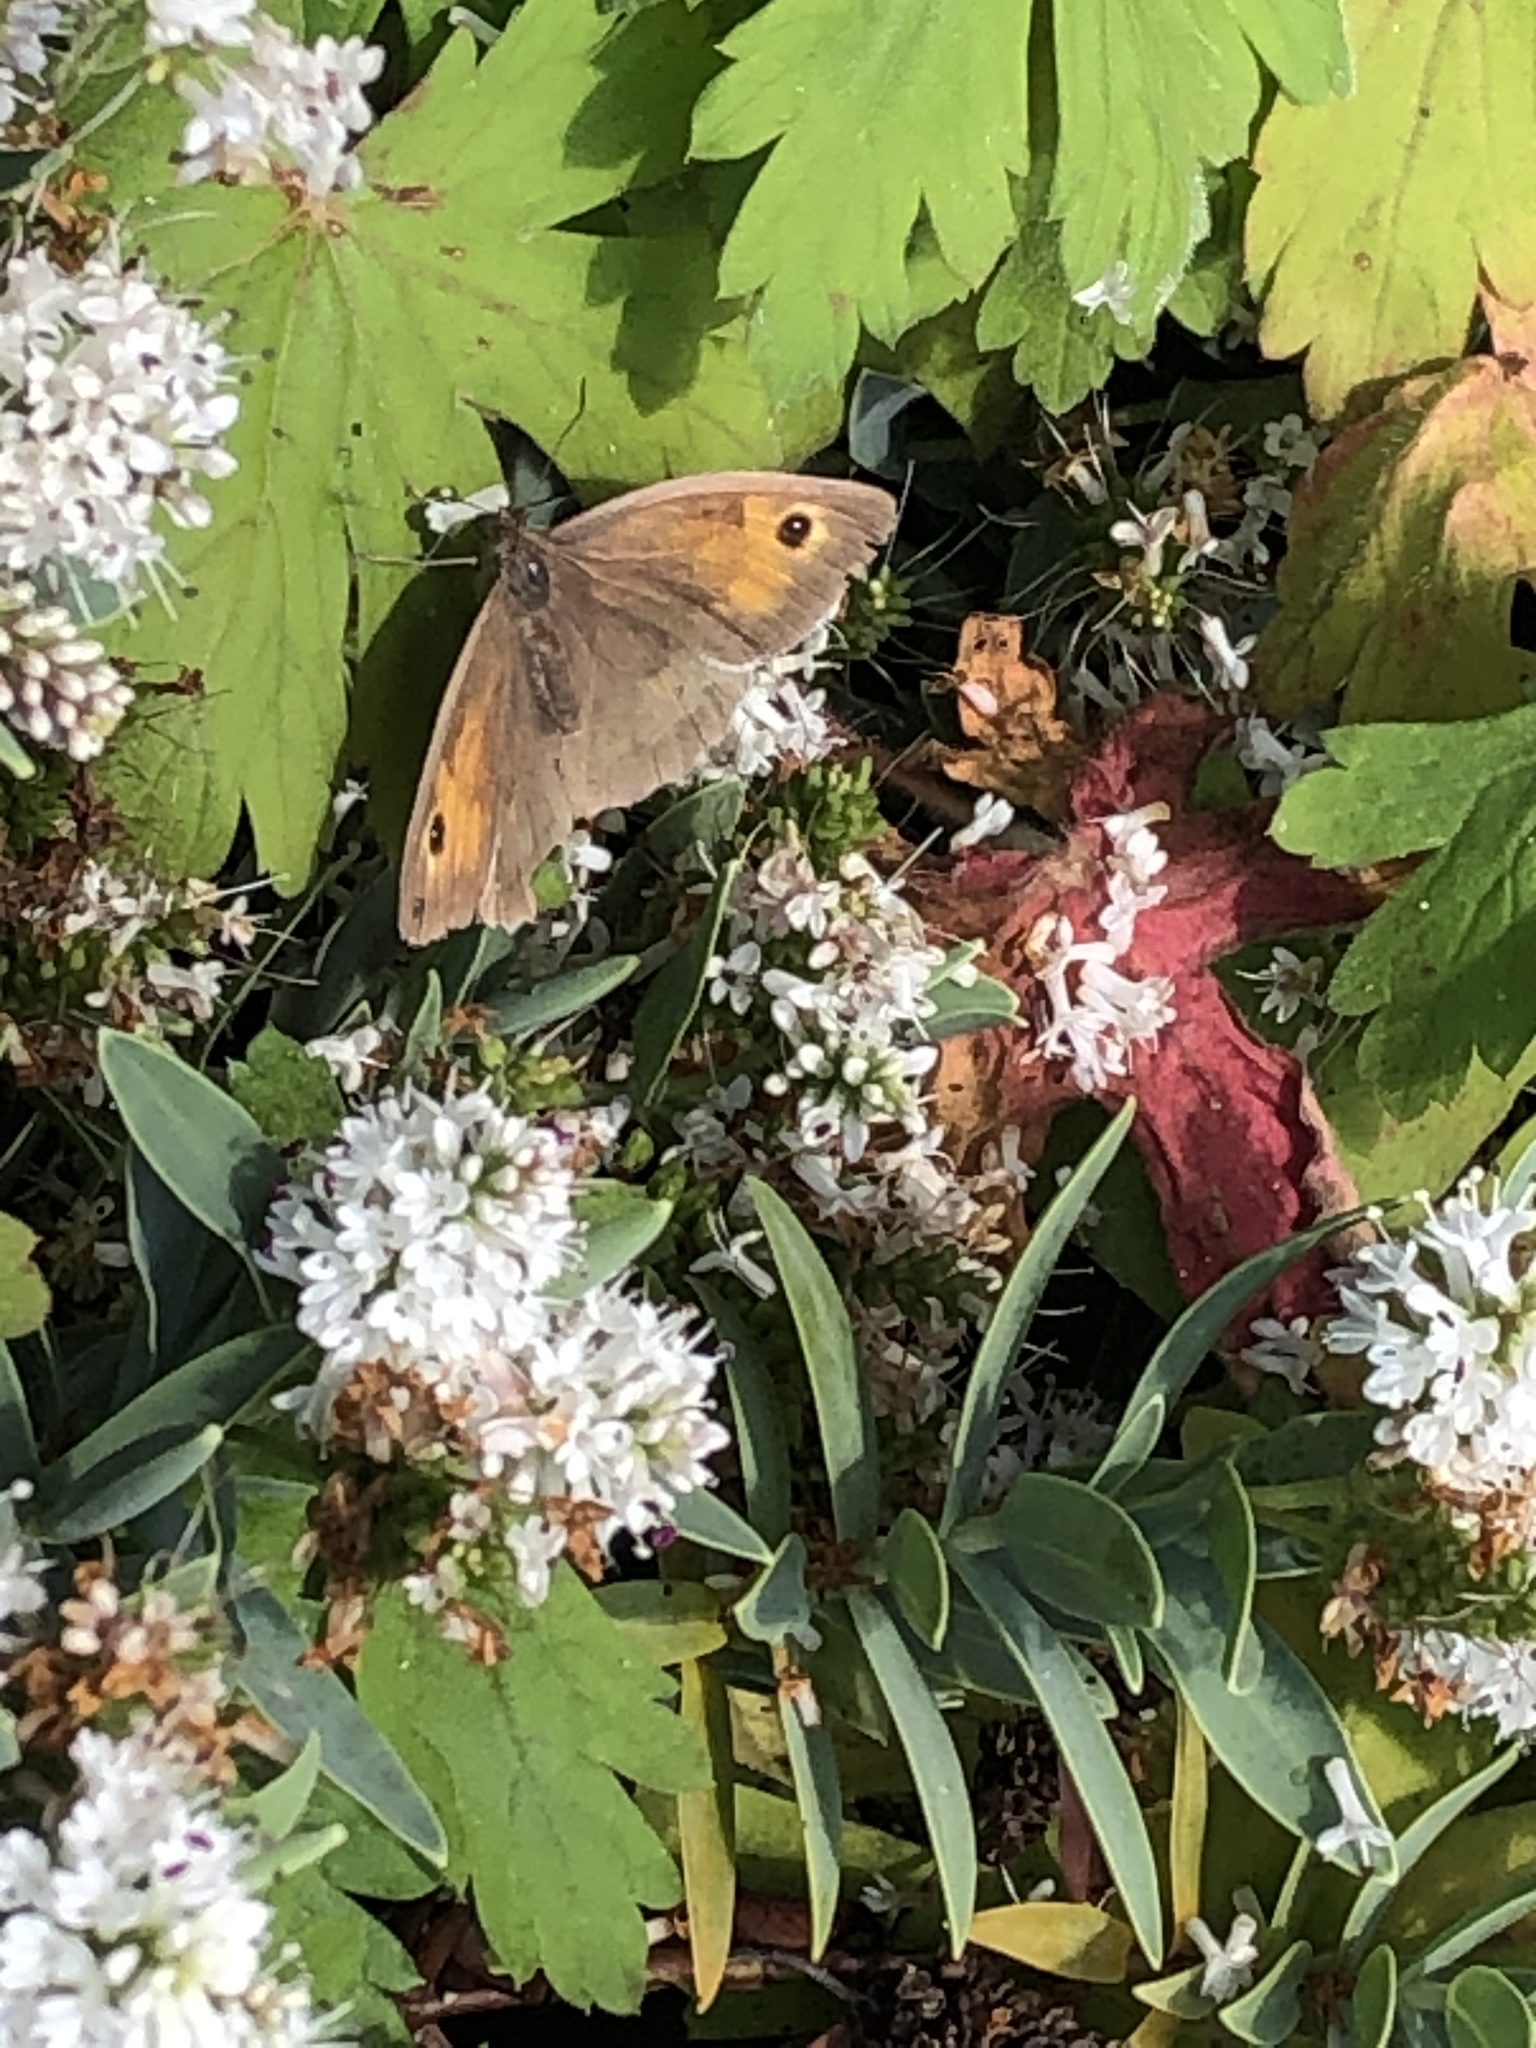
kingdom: Animalia
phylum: Arthropoda
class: Insecta
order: Lepidoptera
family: Nymphalidae
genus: Maniola
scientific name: Maniola jurtina
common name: Meadow brown
